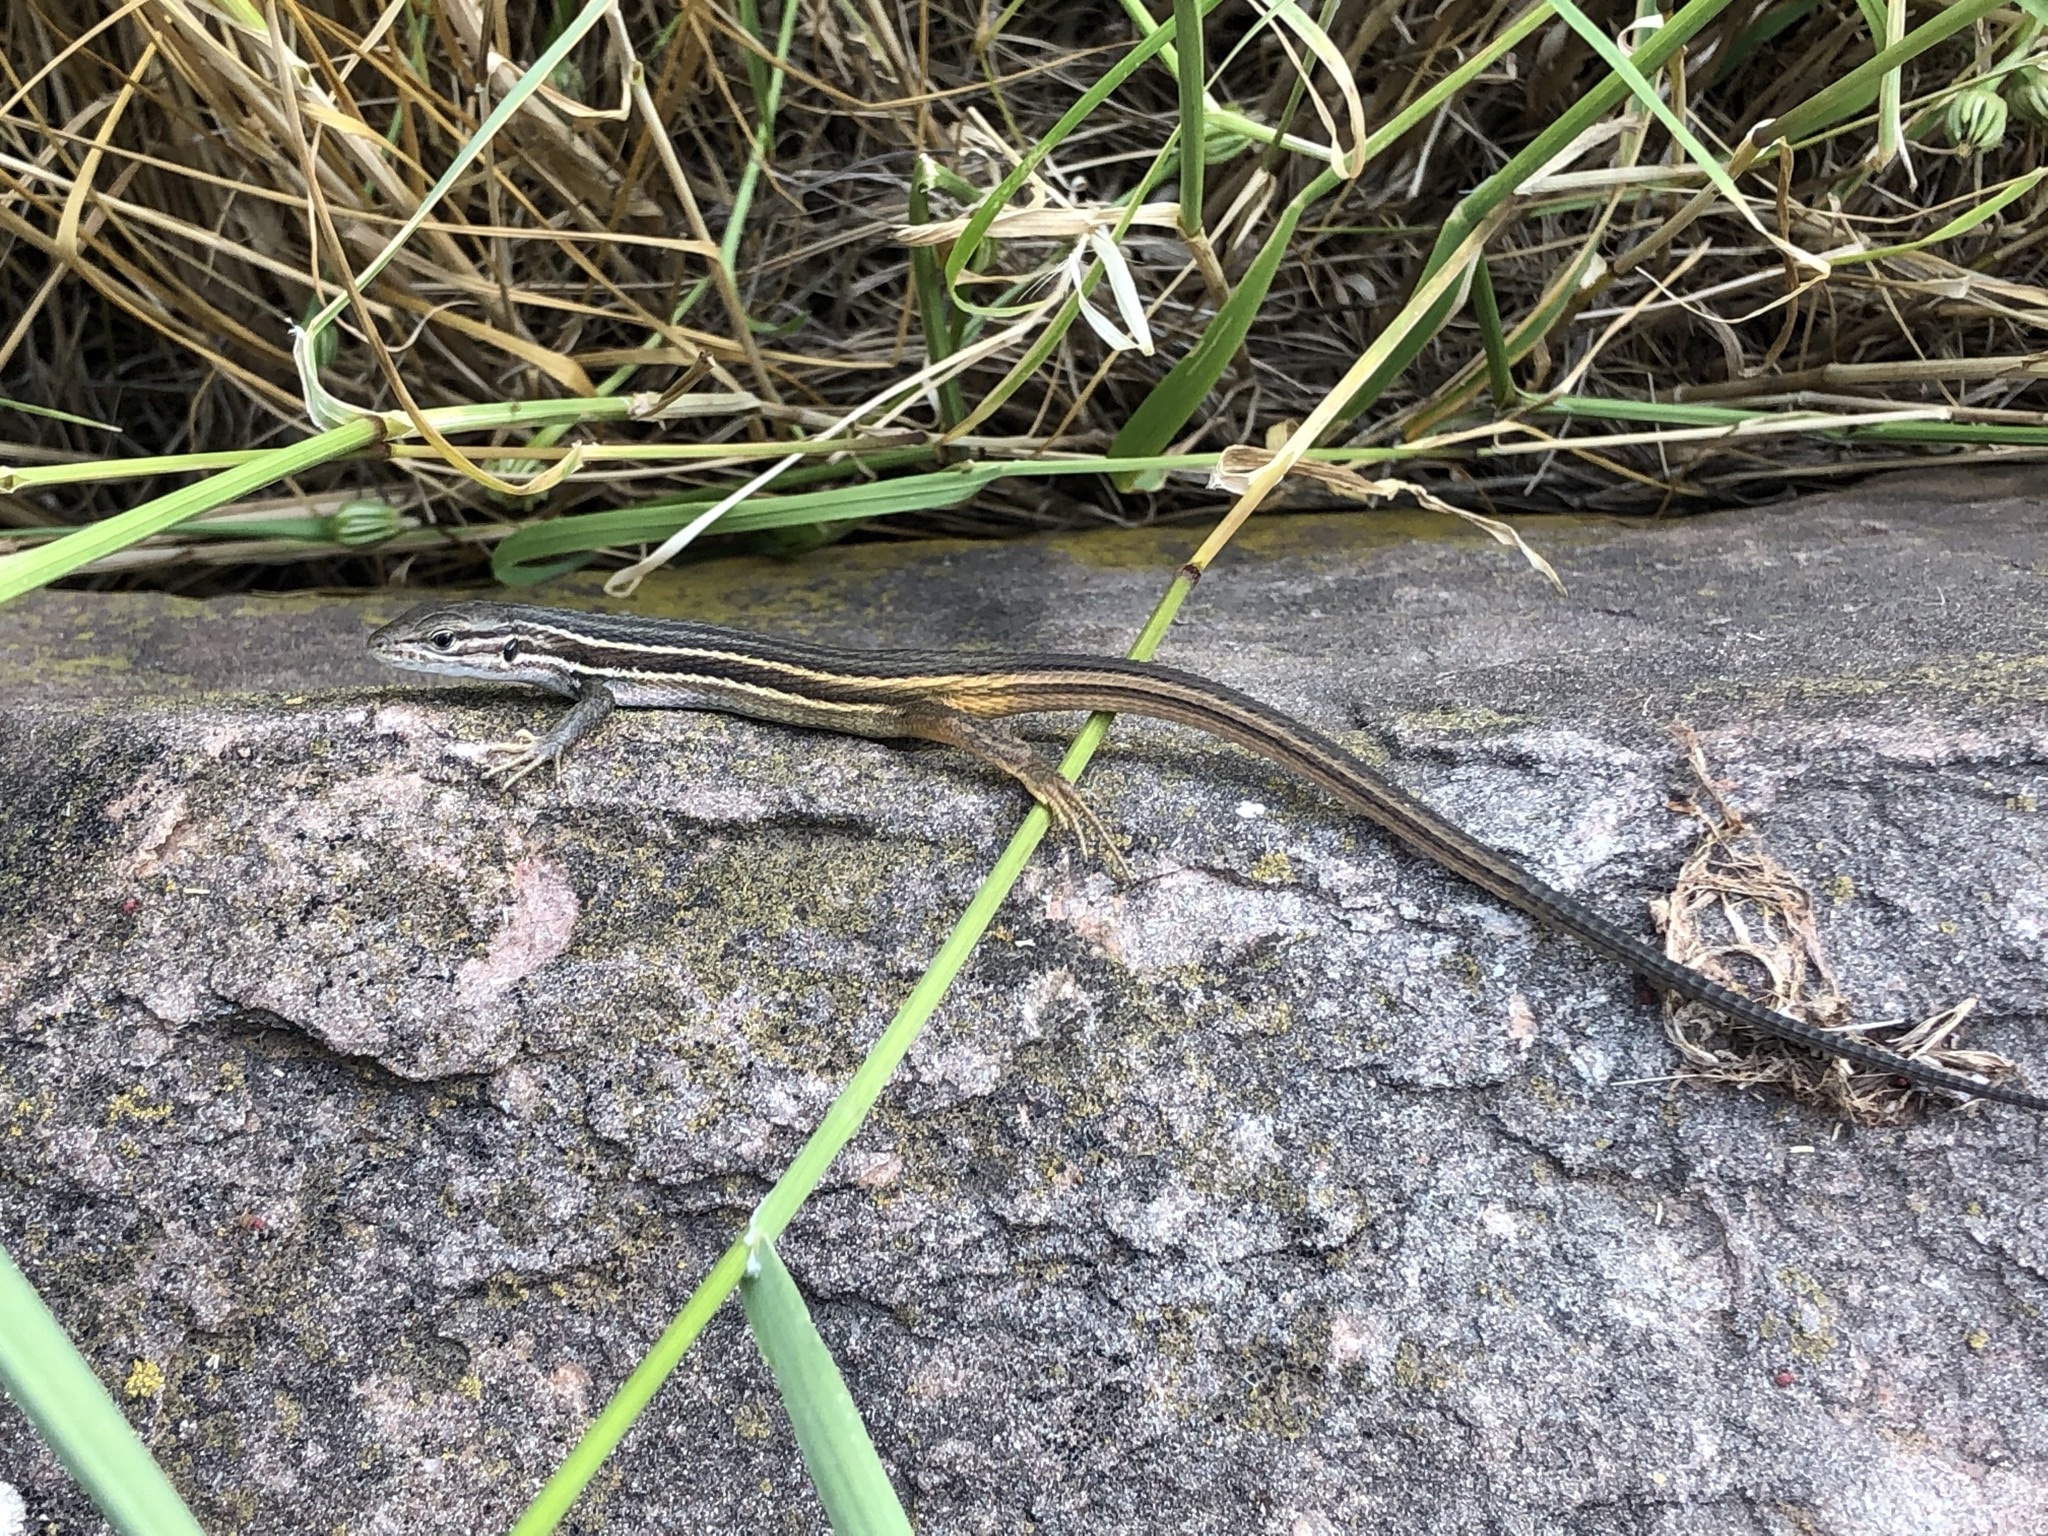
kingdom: Animalia
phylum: Chordata
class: Squamata
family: Lacertidae
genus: Psammodromus
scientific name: Psammodromus algirus
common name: Algerian psammodromus
